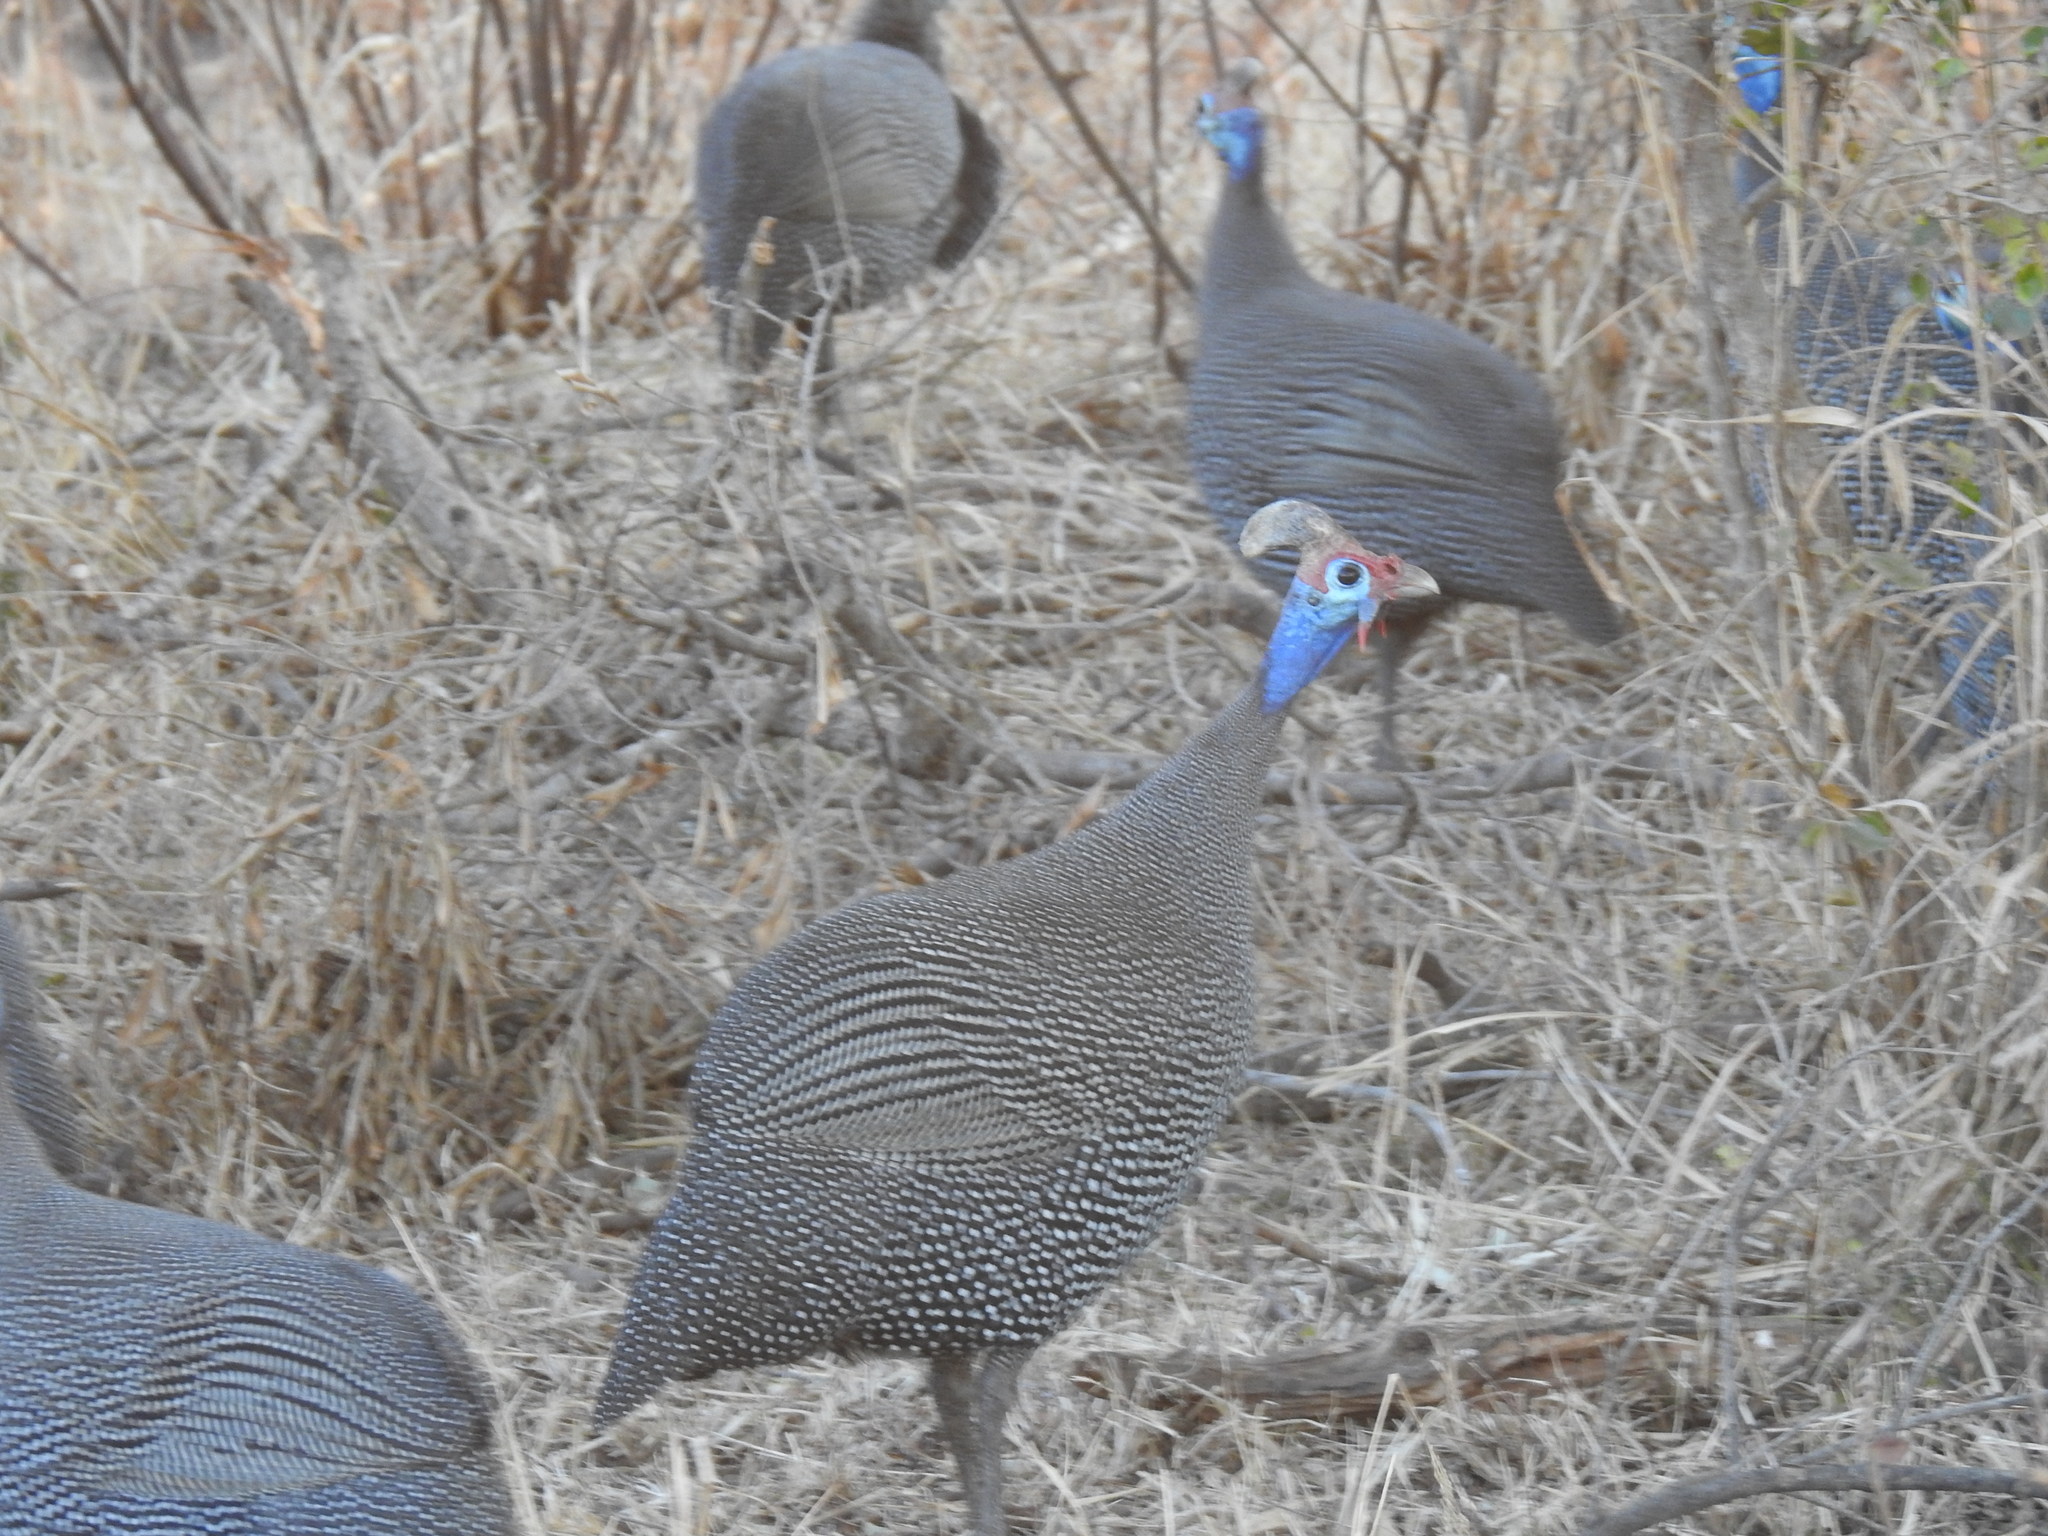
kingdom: Animalia
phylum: Chordata
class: Aves
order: Galliformes
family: Numididae
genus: Numida
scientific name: Numida meleagris
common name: Helmeted guineafowl
